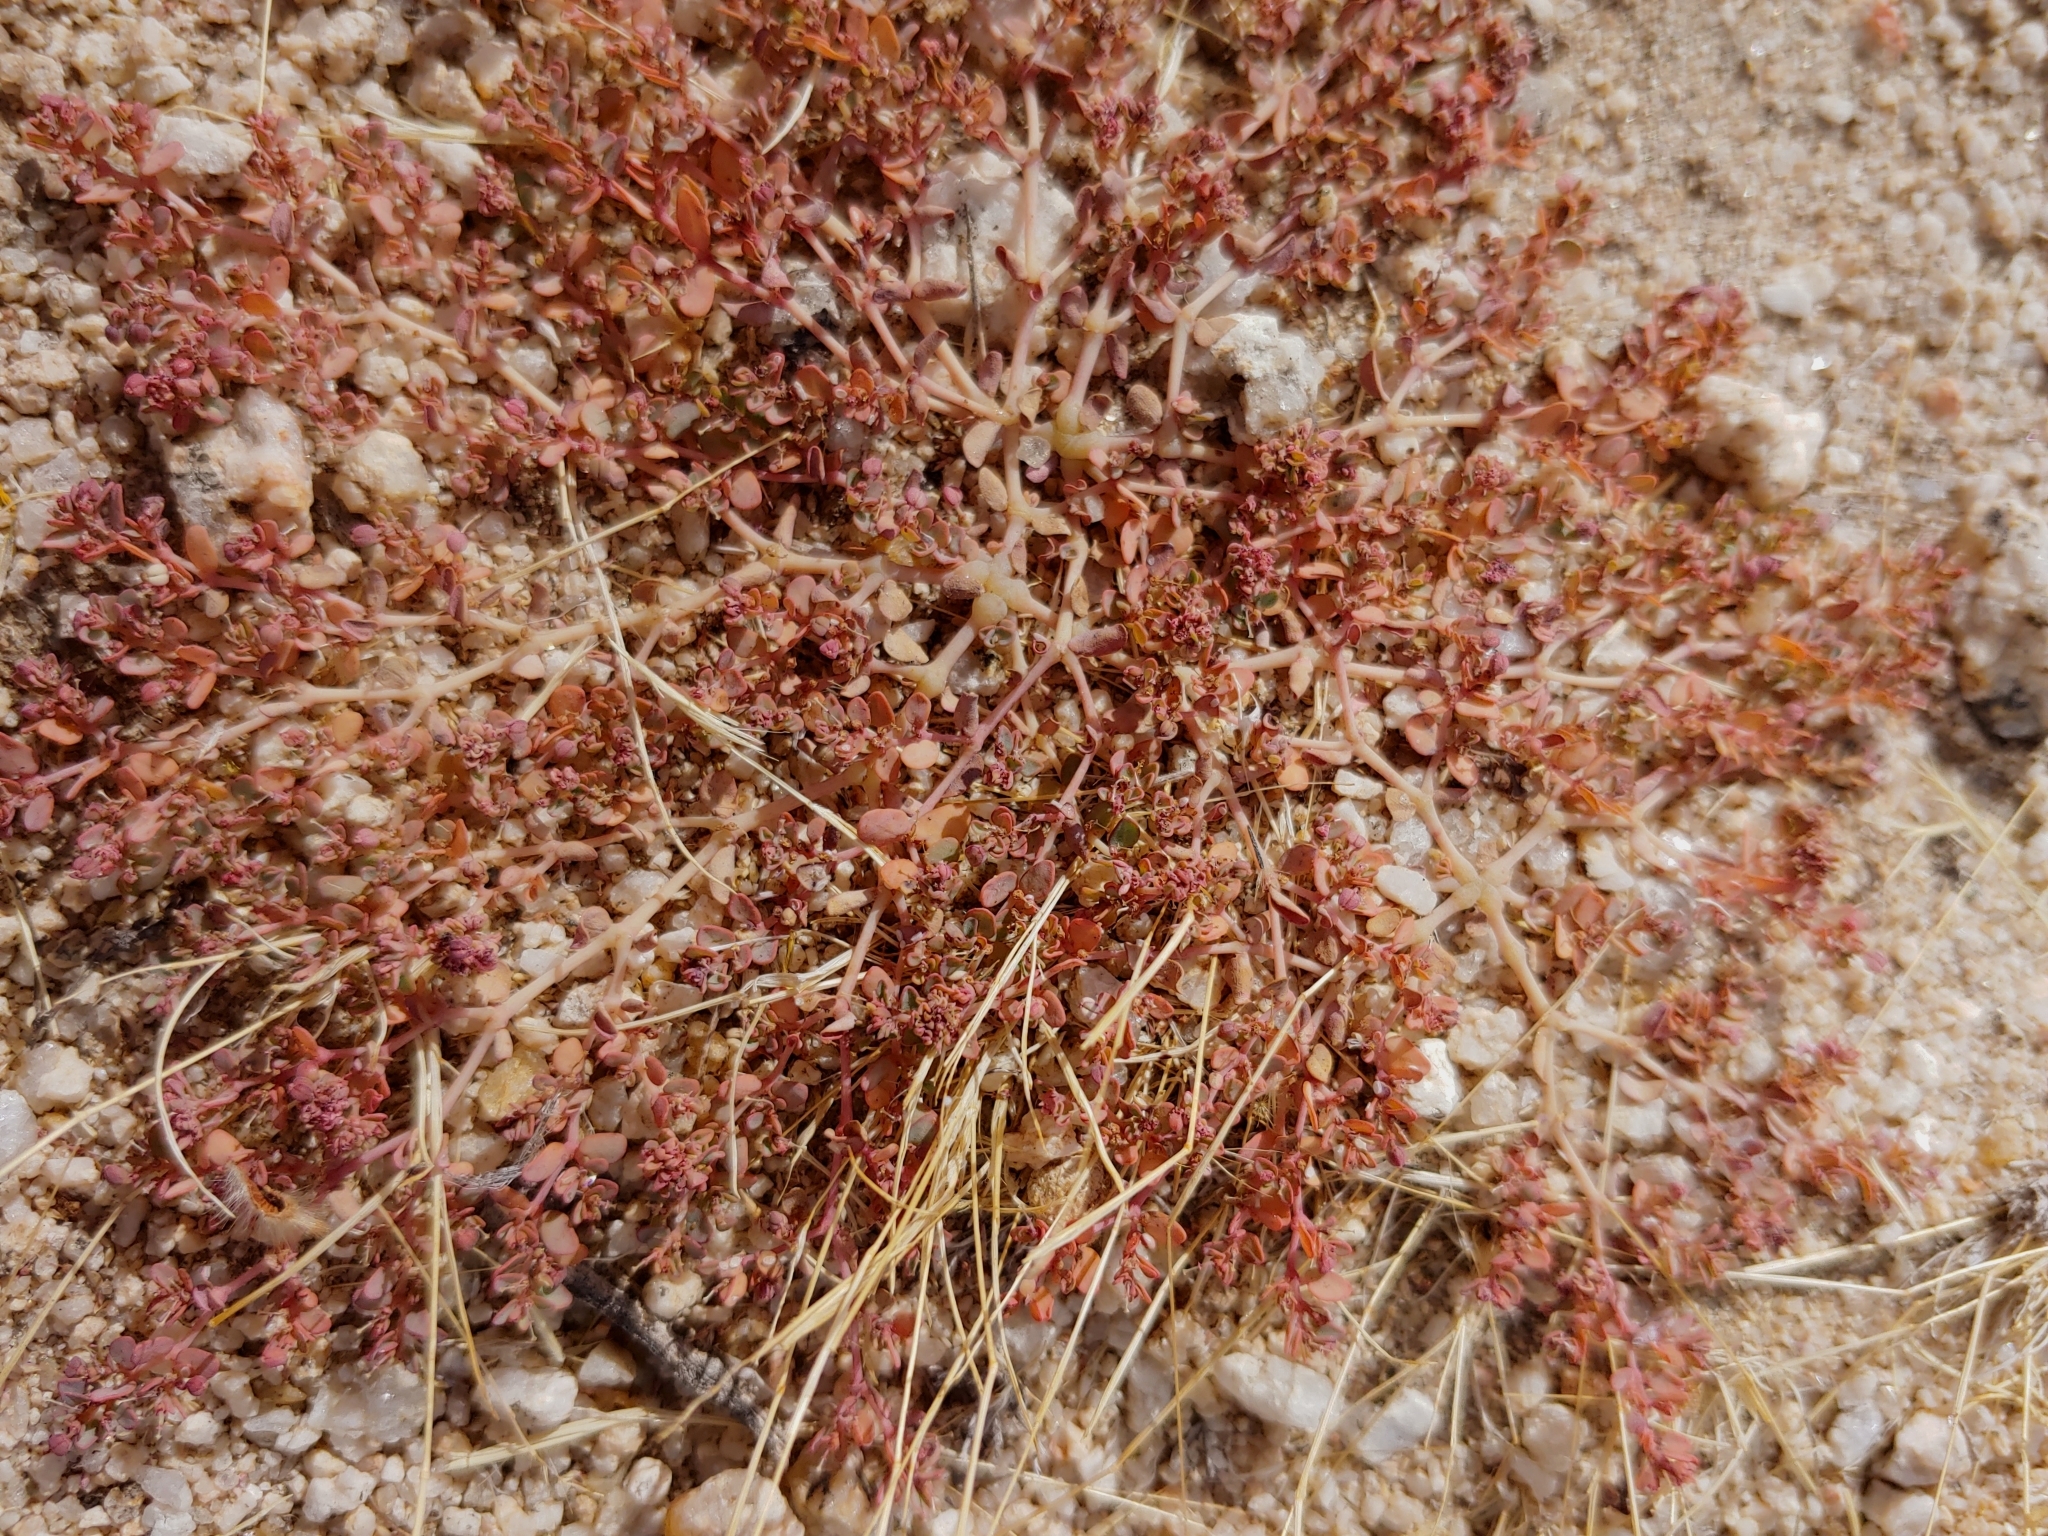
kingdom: Plantae
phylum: Tracheophyta
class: Magnoliopsida
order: Malpighiales
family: Euphorbiaceae
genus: Euphorbia
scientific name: Euphorbia polycarpa
